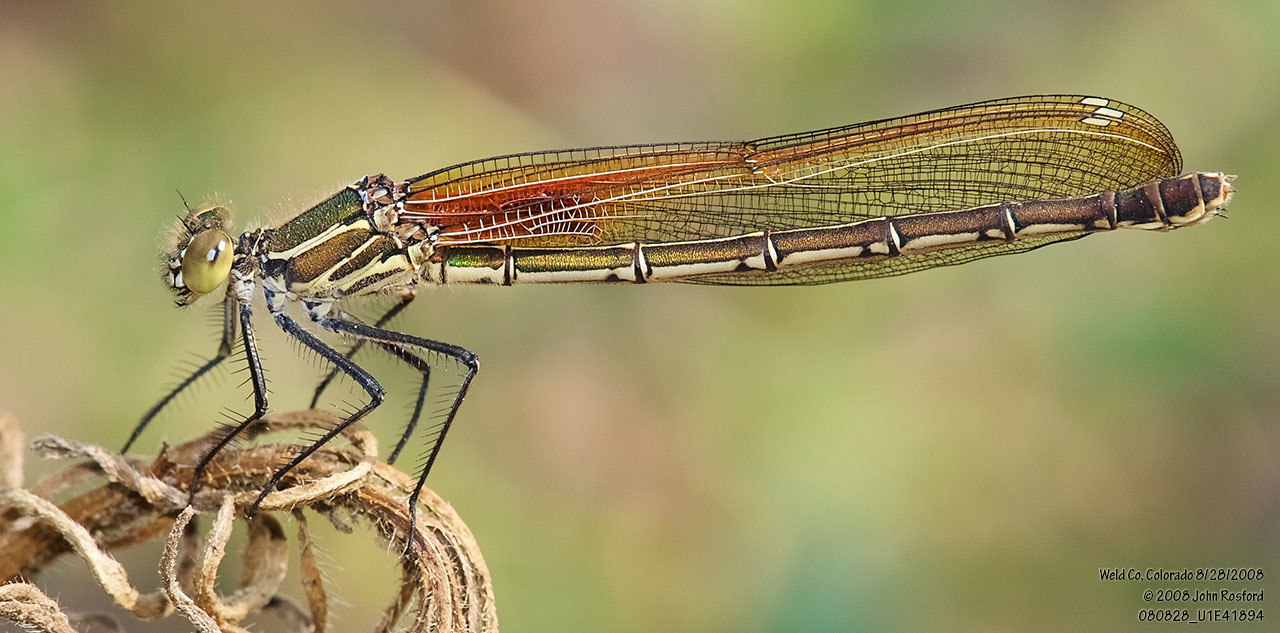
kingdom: Animalia
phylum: Arthropoda
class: Insecta
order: Odonata
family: Calopterygidae
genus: Hetaerina
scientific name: Hetaerina americana
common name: American rubyspot
